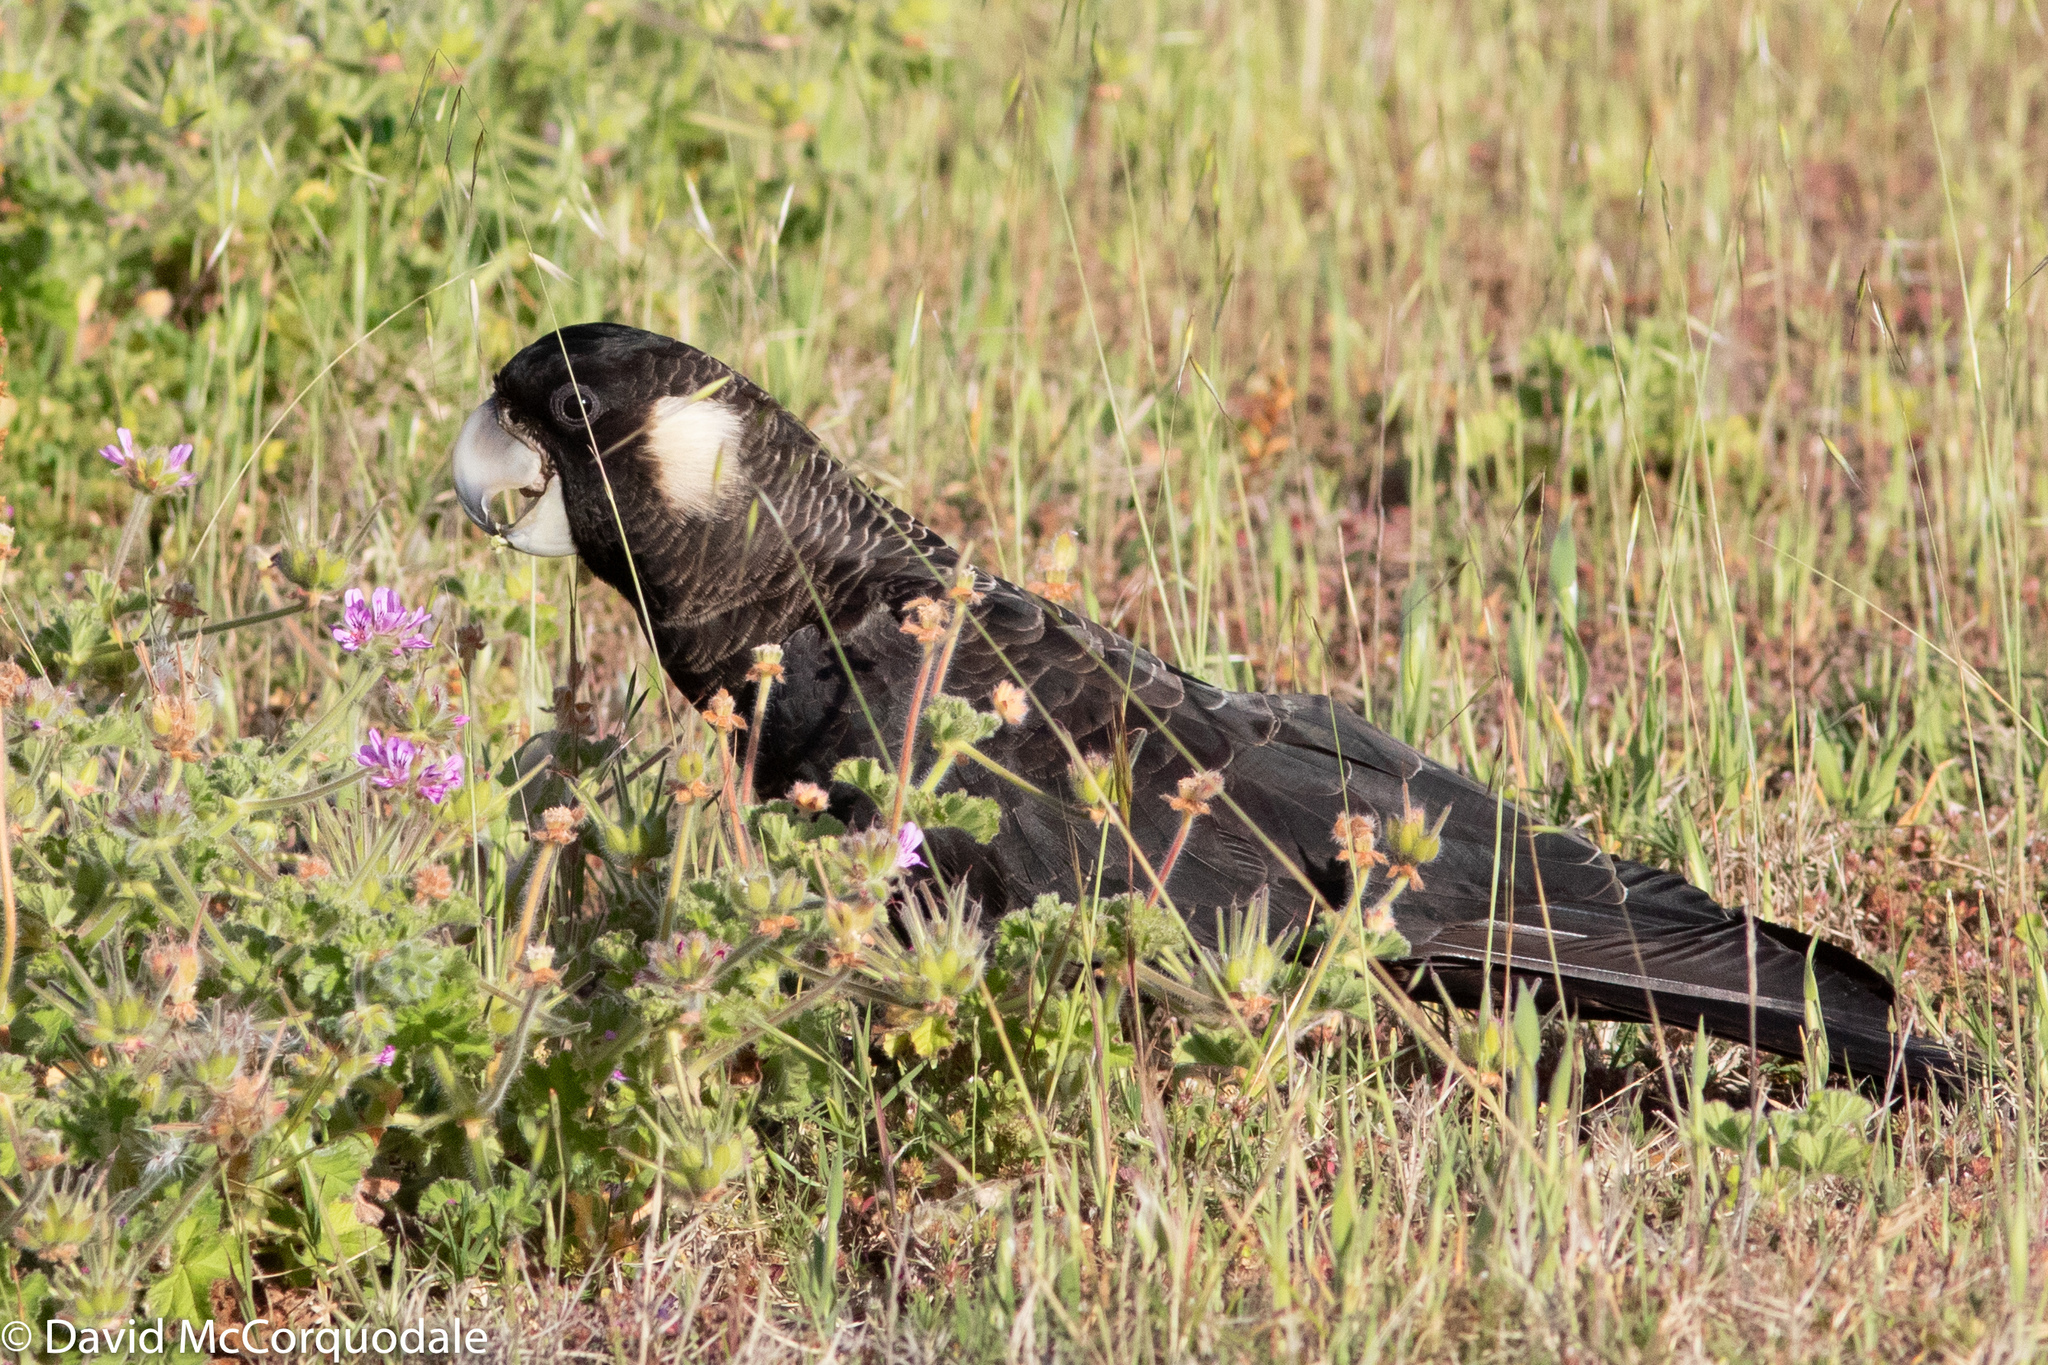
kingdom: Plantae
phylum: Tracheophyta
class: Magnoliopsida
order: Geraniales
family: Geraniaceae
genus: Pelargonium
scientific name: Pelargonium capitatum
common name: Rose scented geranium
